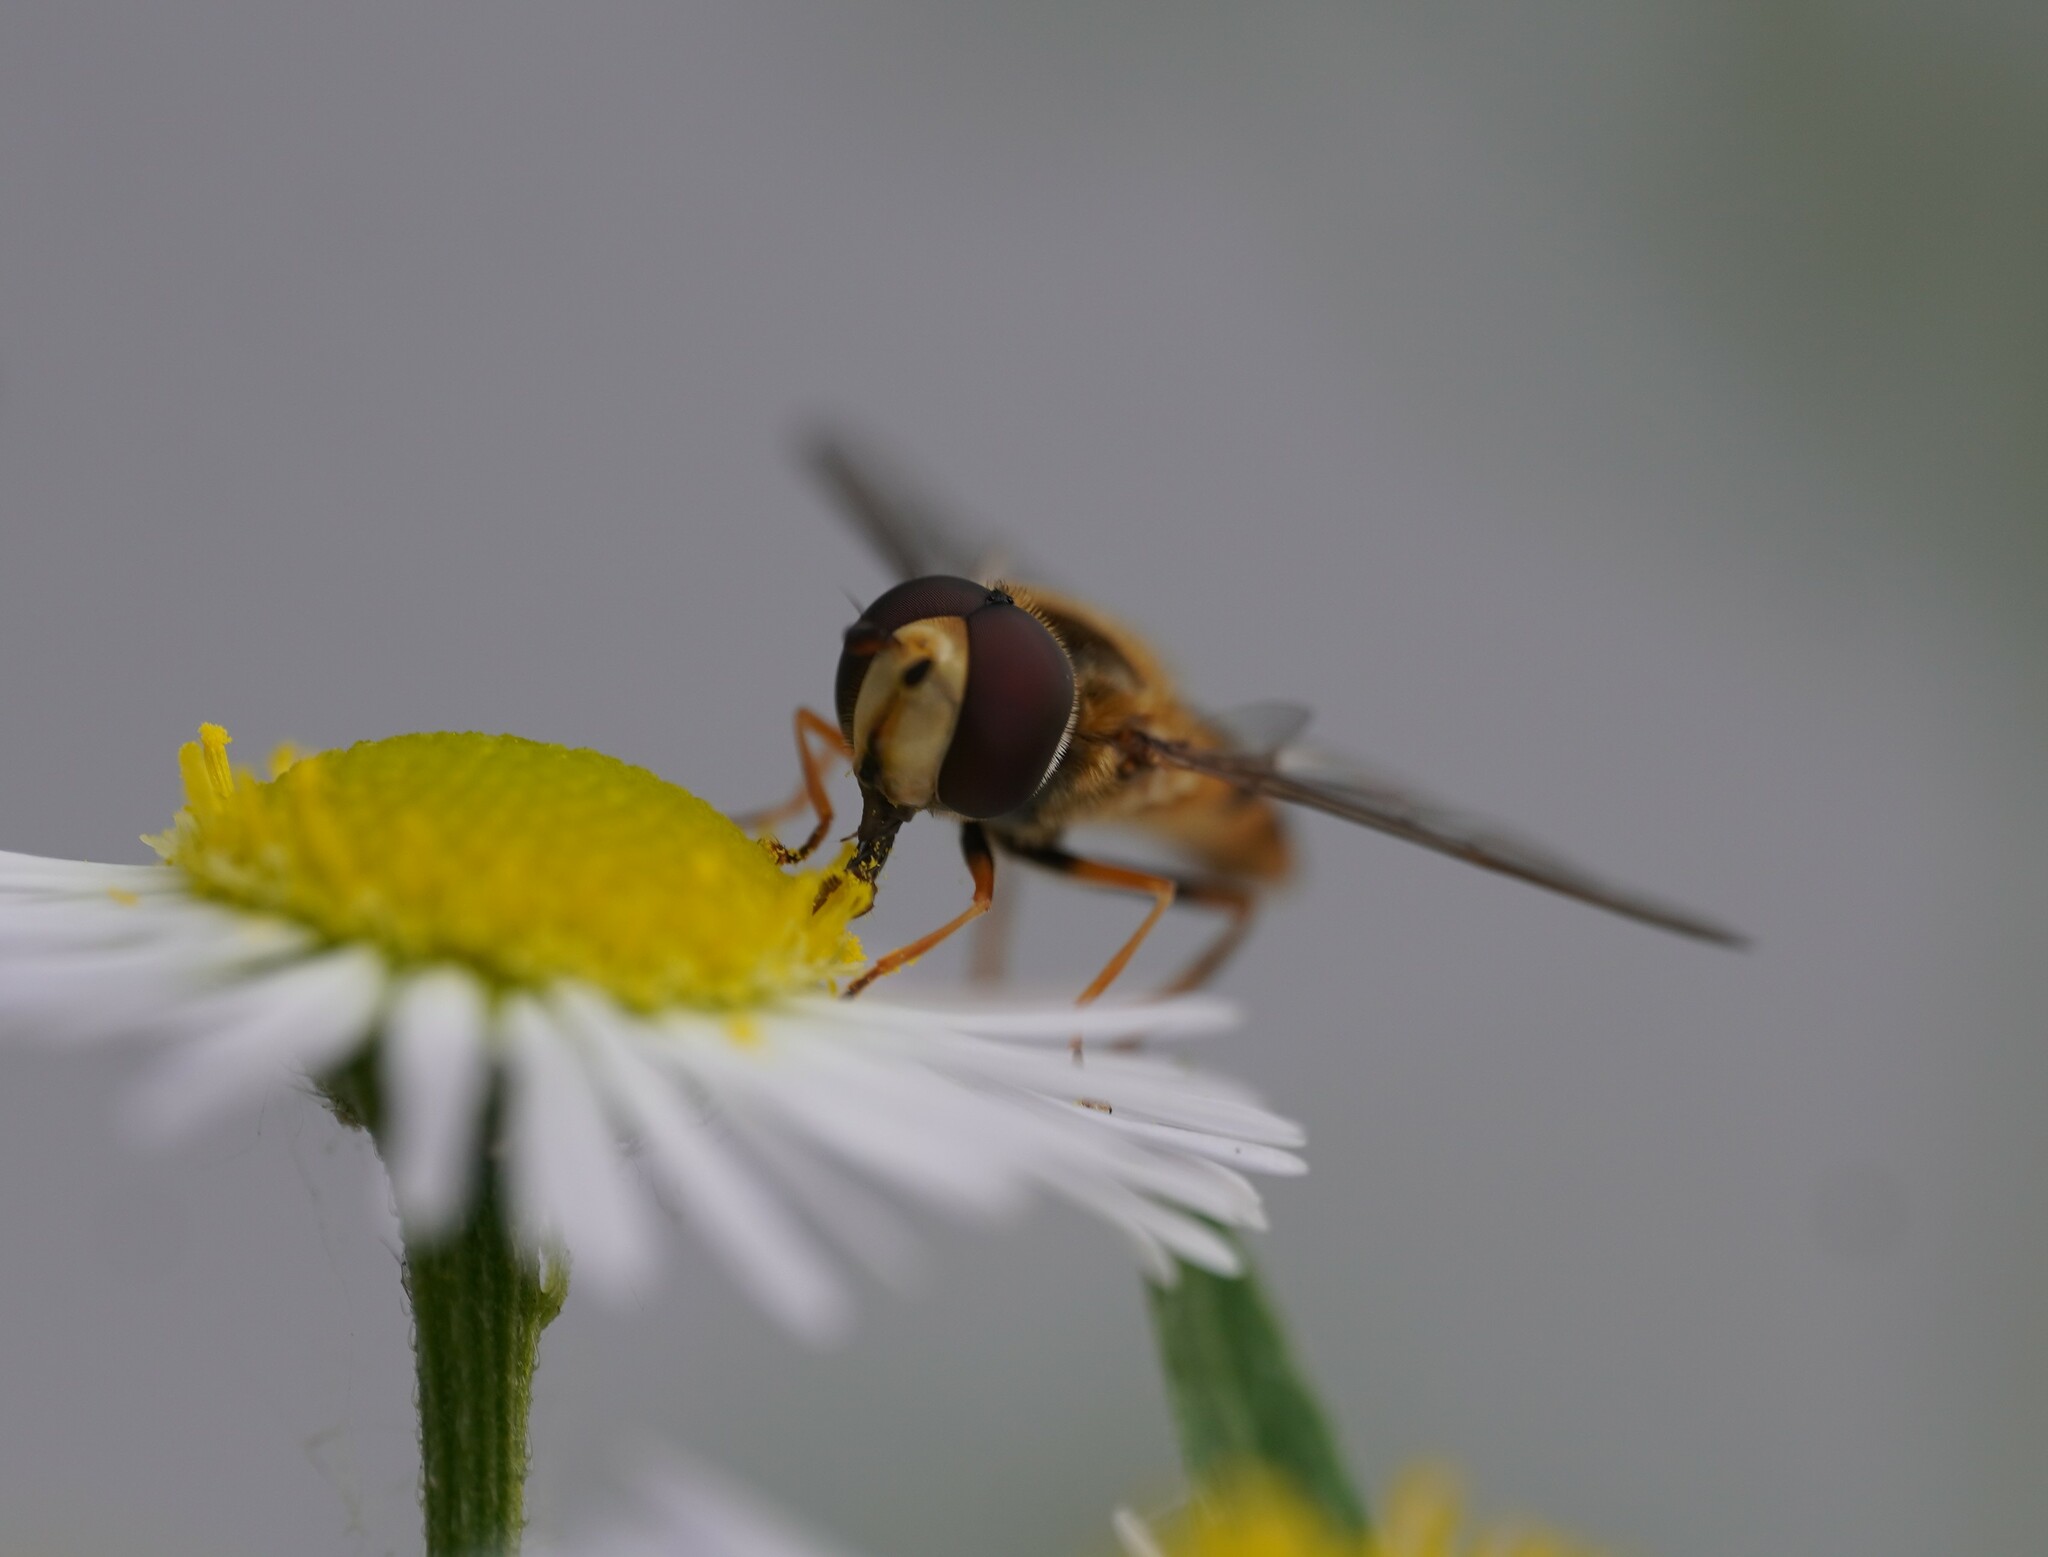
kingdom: Animalia
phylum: Arthropoda
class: Insecta
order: Diptera
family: Syrphidae
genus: Eupeodes
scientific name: Eupeodes corollae
